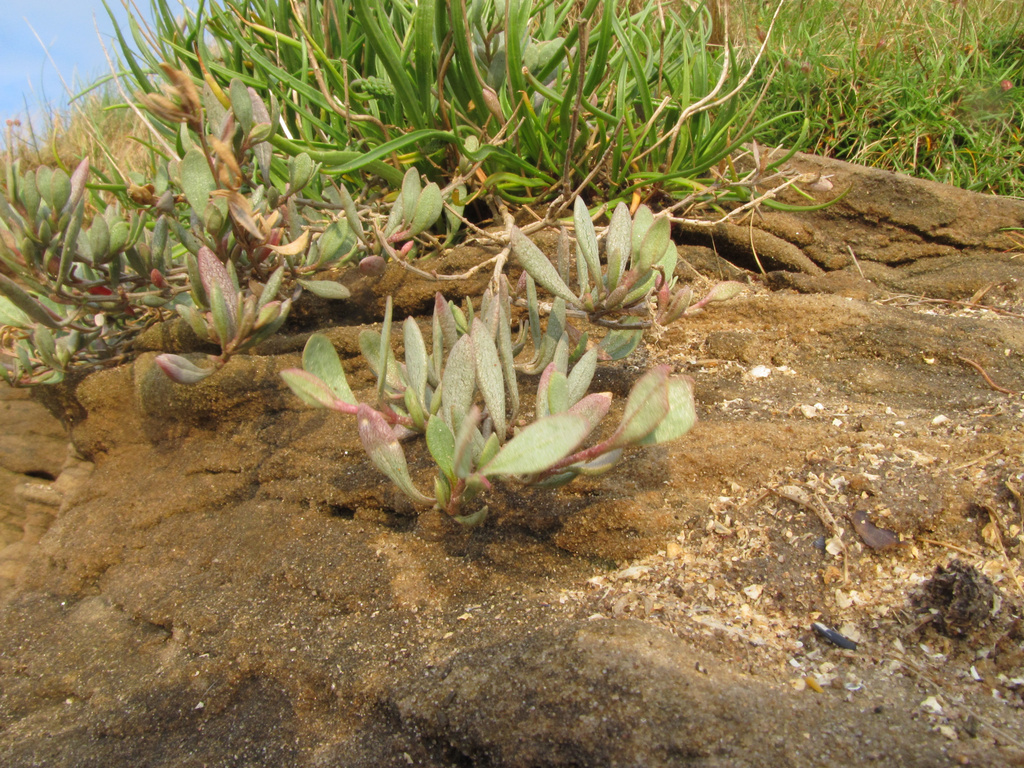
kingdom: Plantae
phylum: Tracheophyta
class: Magnoliopsida
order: Caryophyllales
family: Amaranthaceae
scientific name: Amaranthaceae
